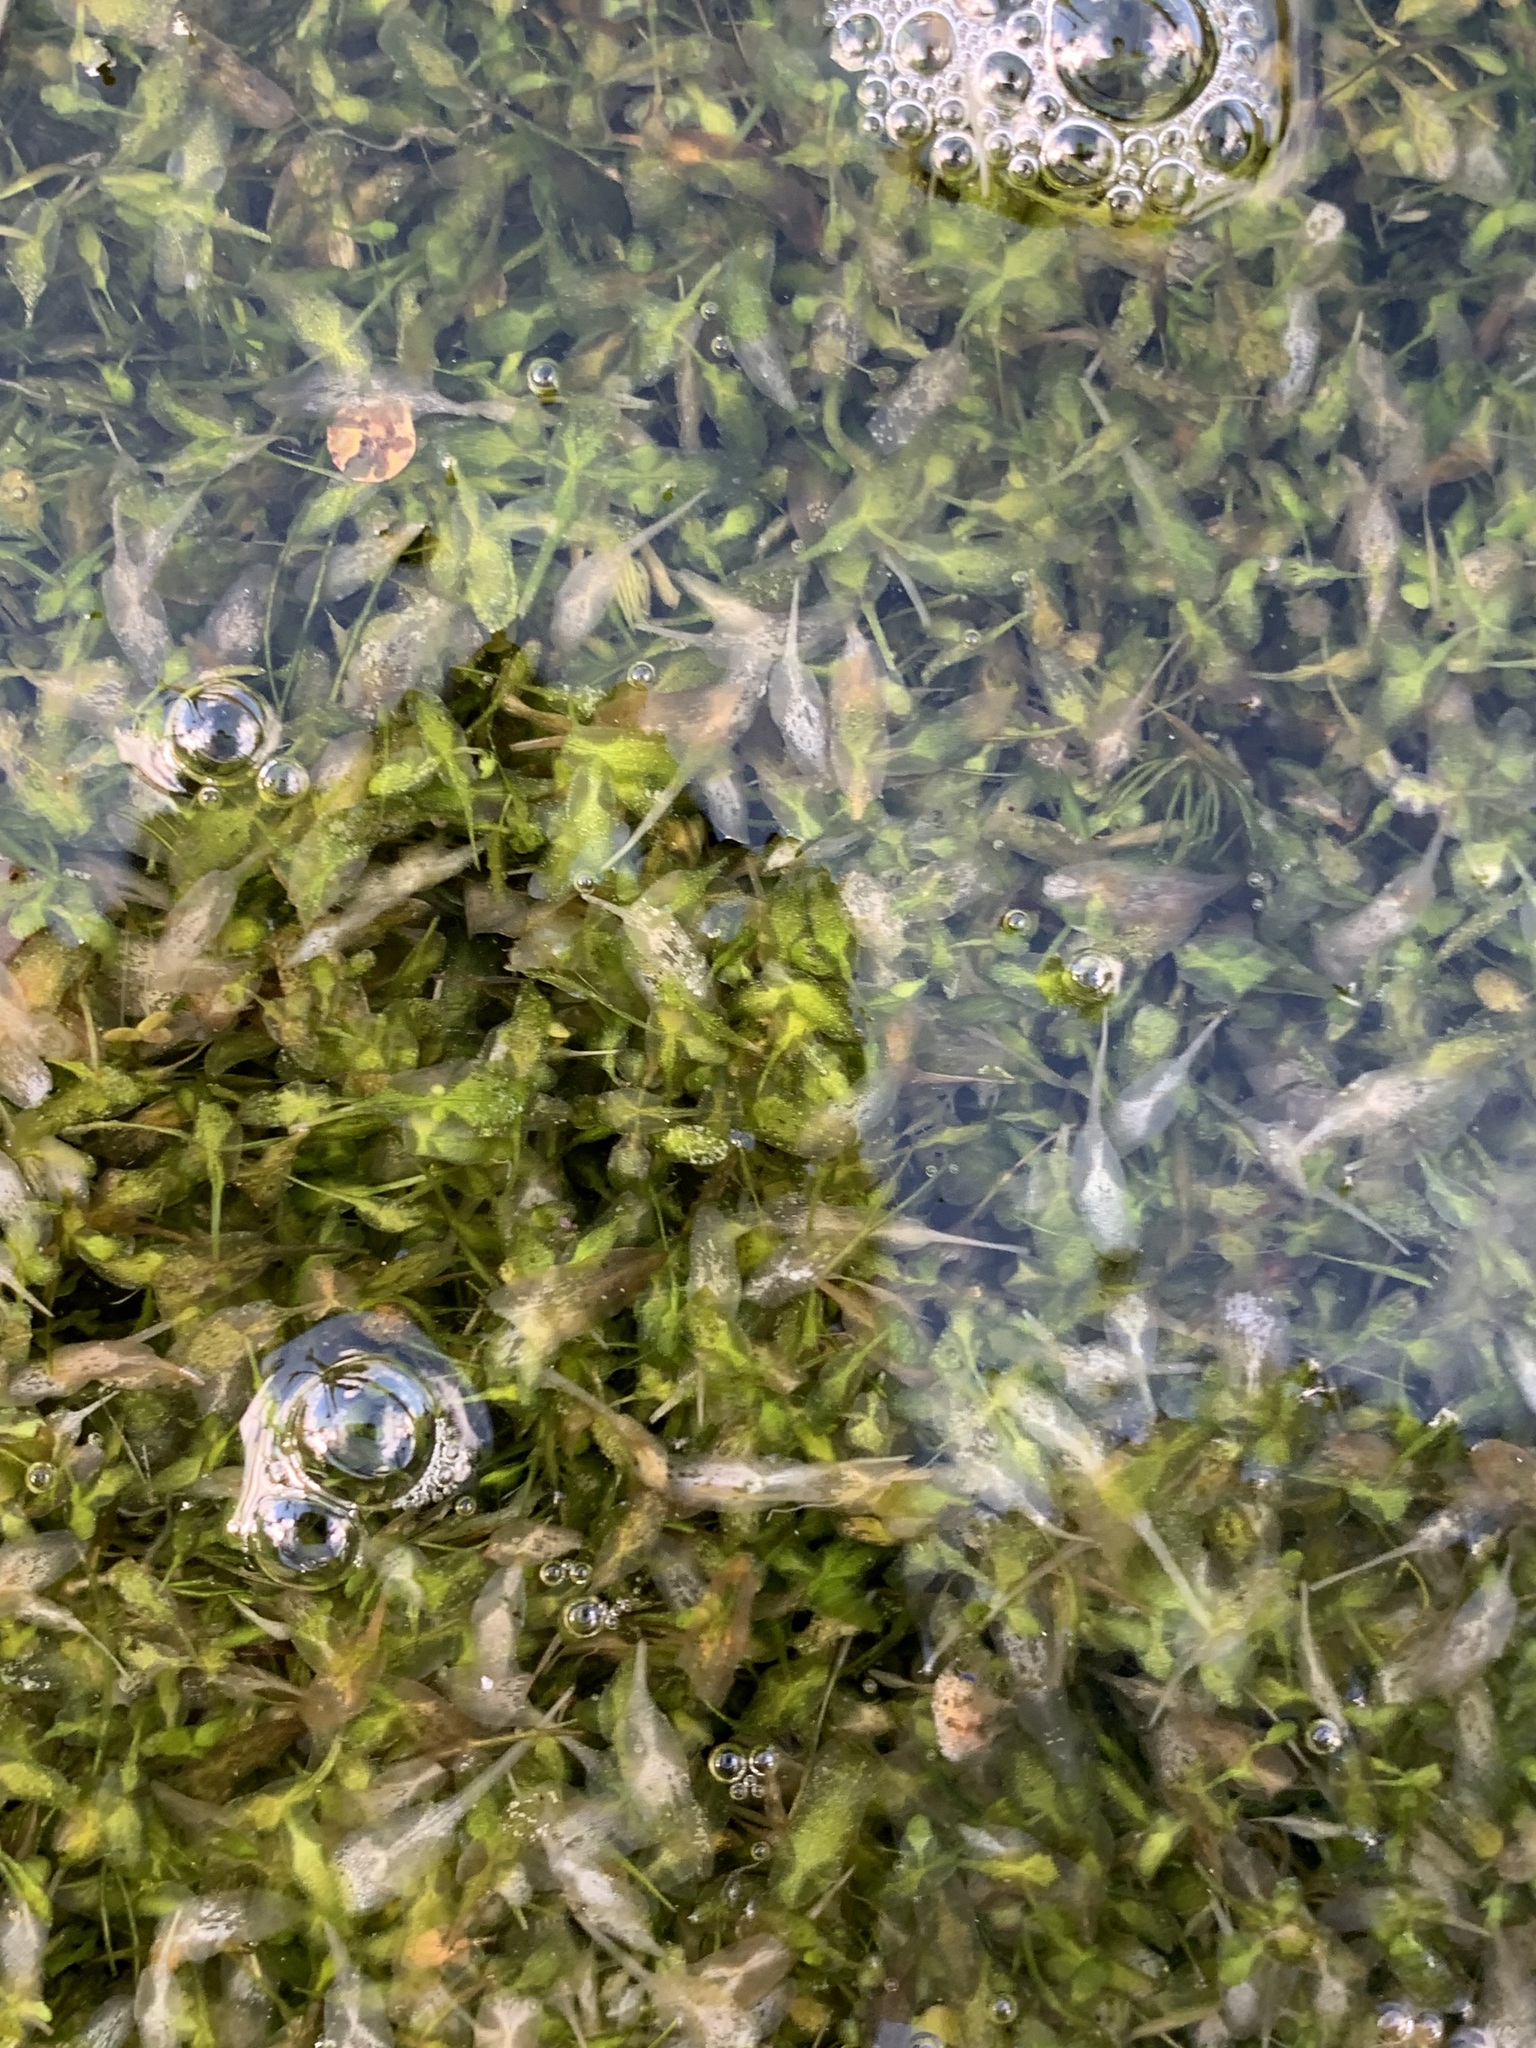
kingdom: Plantae
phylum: Tracheophyta
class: Liliopsida
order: Alismatales
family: Araceae
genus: Lemna
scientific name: Lemna trisulca
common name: Ivy-leaved duckweed
